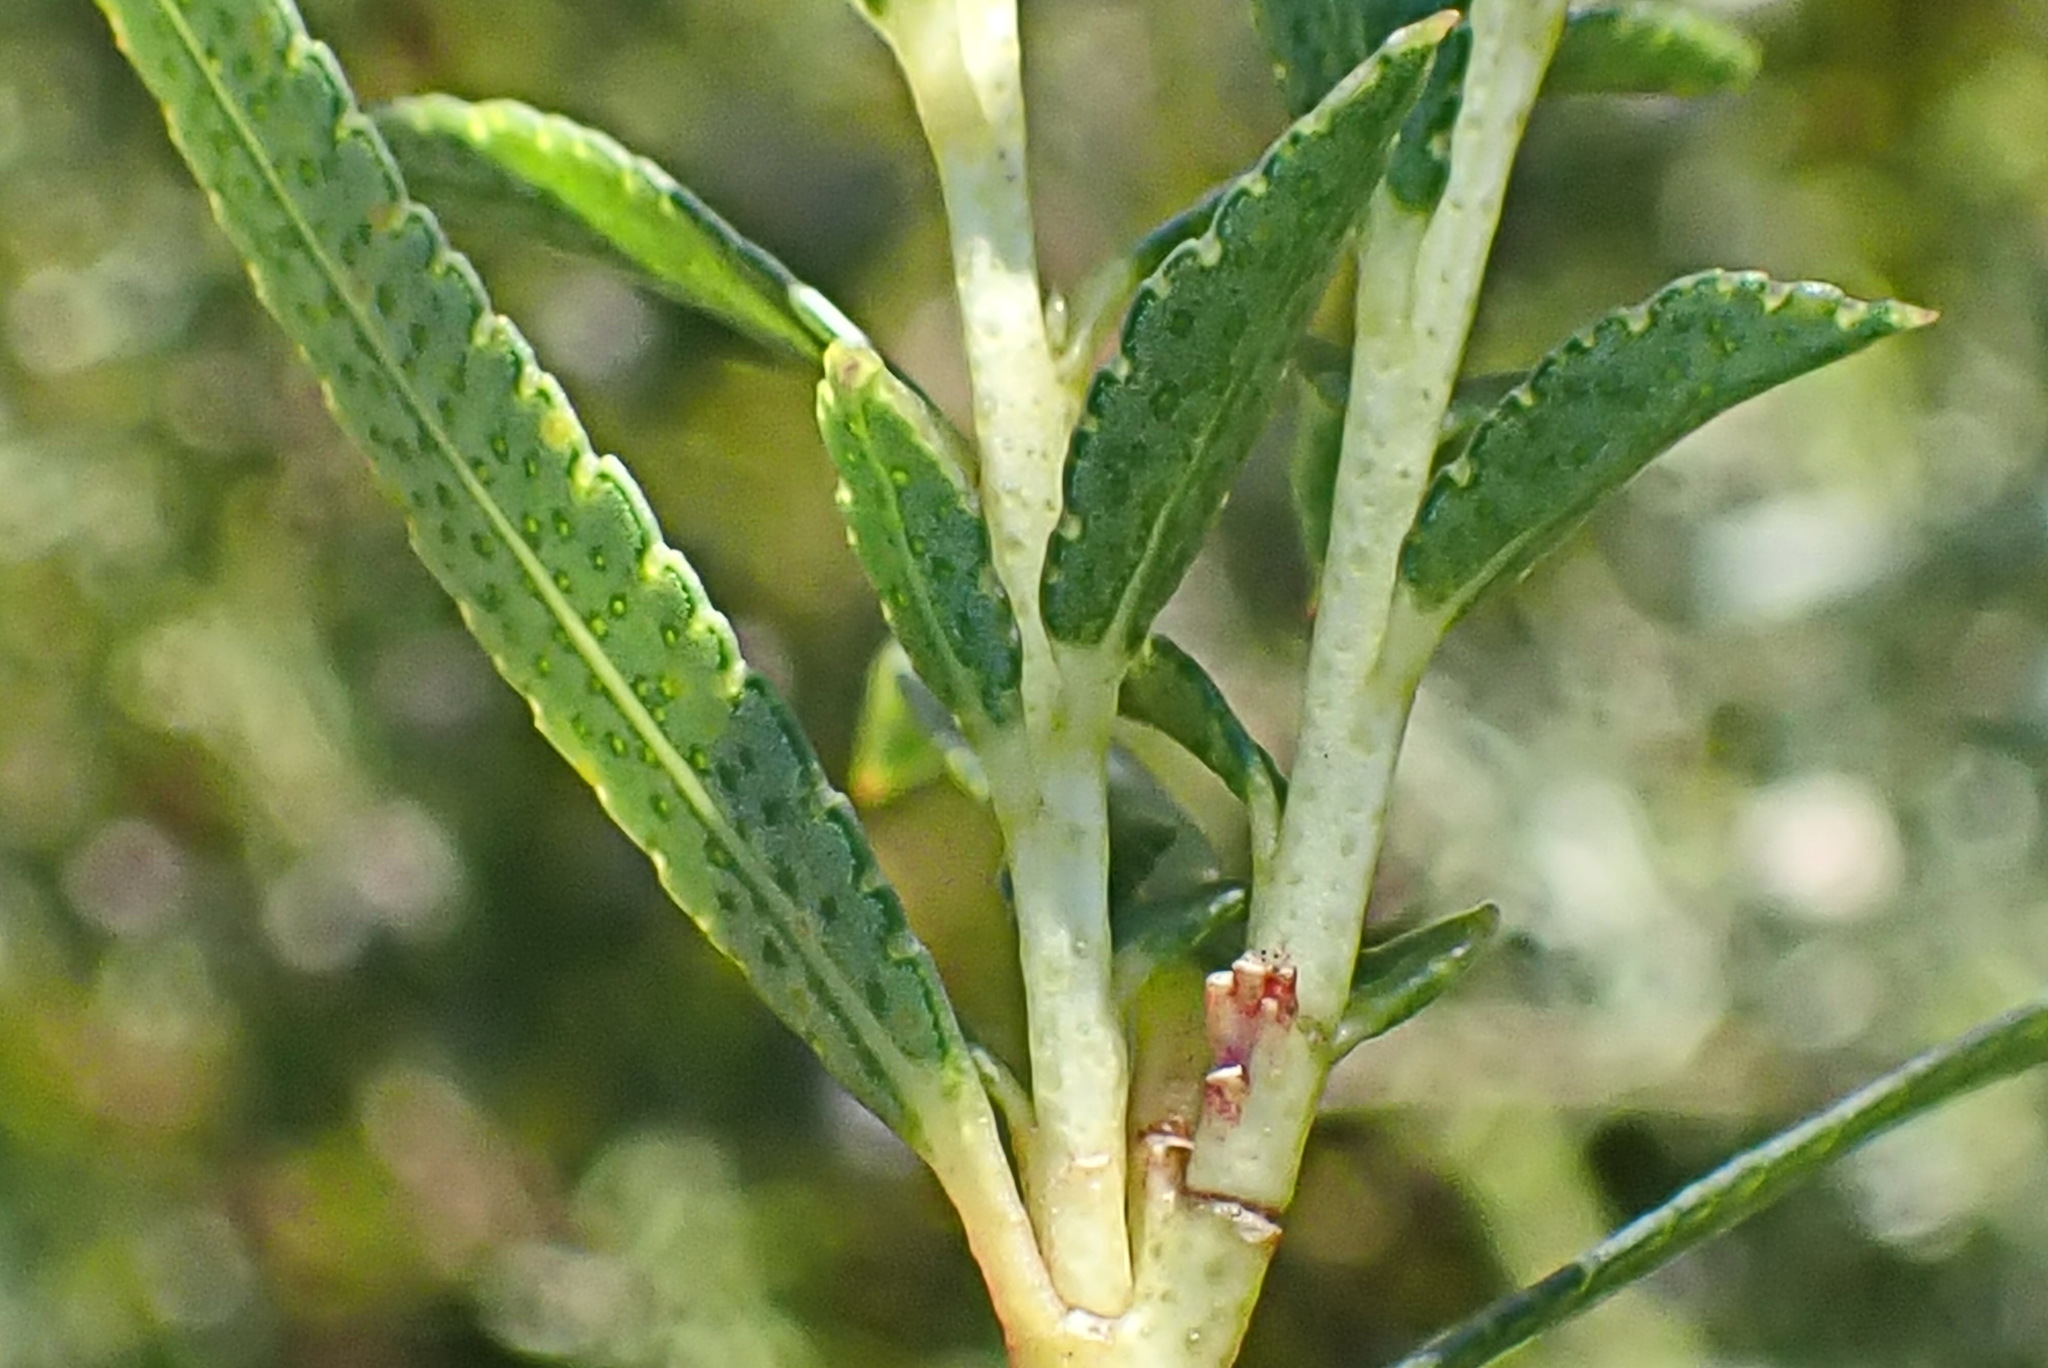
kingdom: Plantae
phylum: Tracheophyta
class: Magnoliopsida
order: Sapindales
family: Rutaceae
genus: Empleurum
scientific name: Empleurum unicapsulare
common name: False buchu
